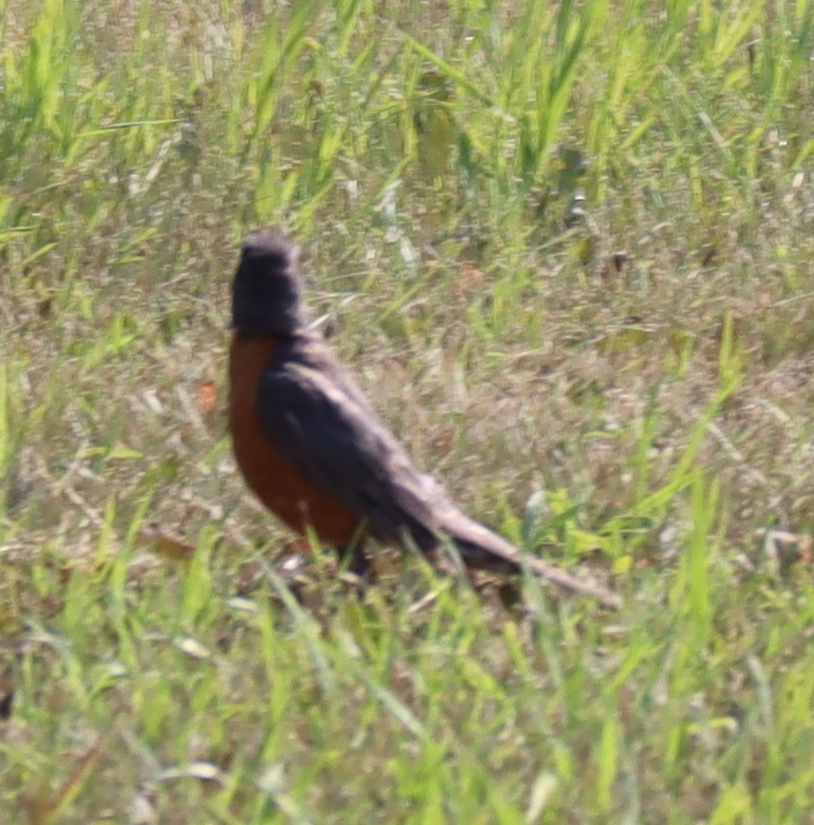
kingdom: Animalia
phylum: Chordata
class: Aves
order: Passeriformes
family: Turdidae
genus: Turdus
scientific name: Turdus migratorius
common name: American robin
